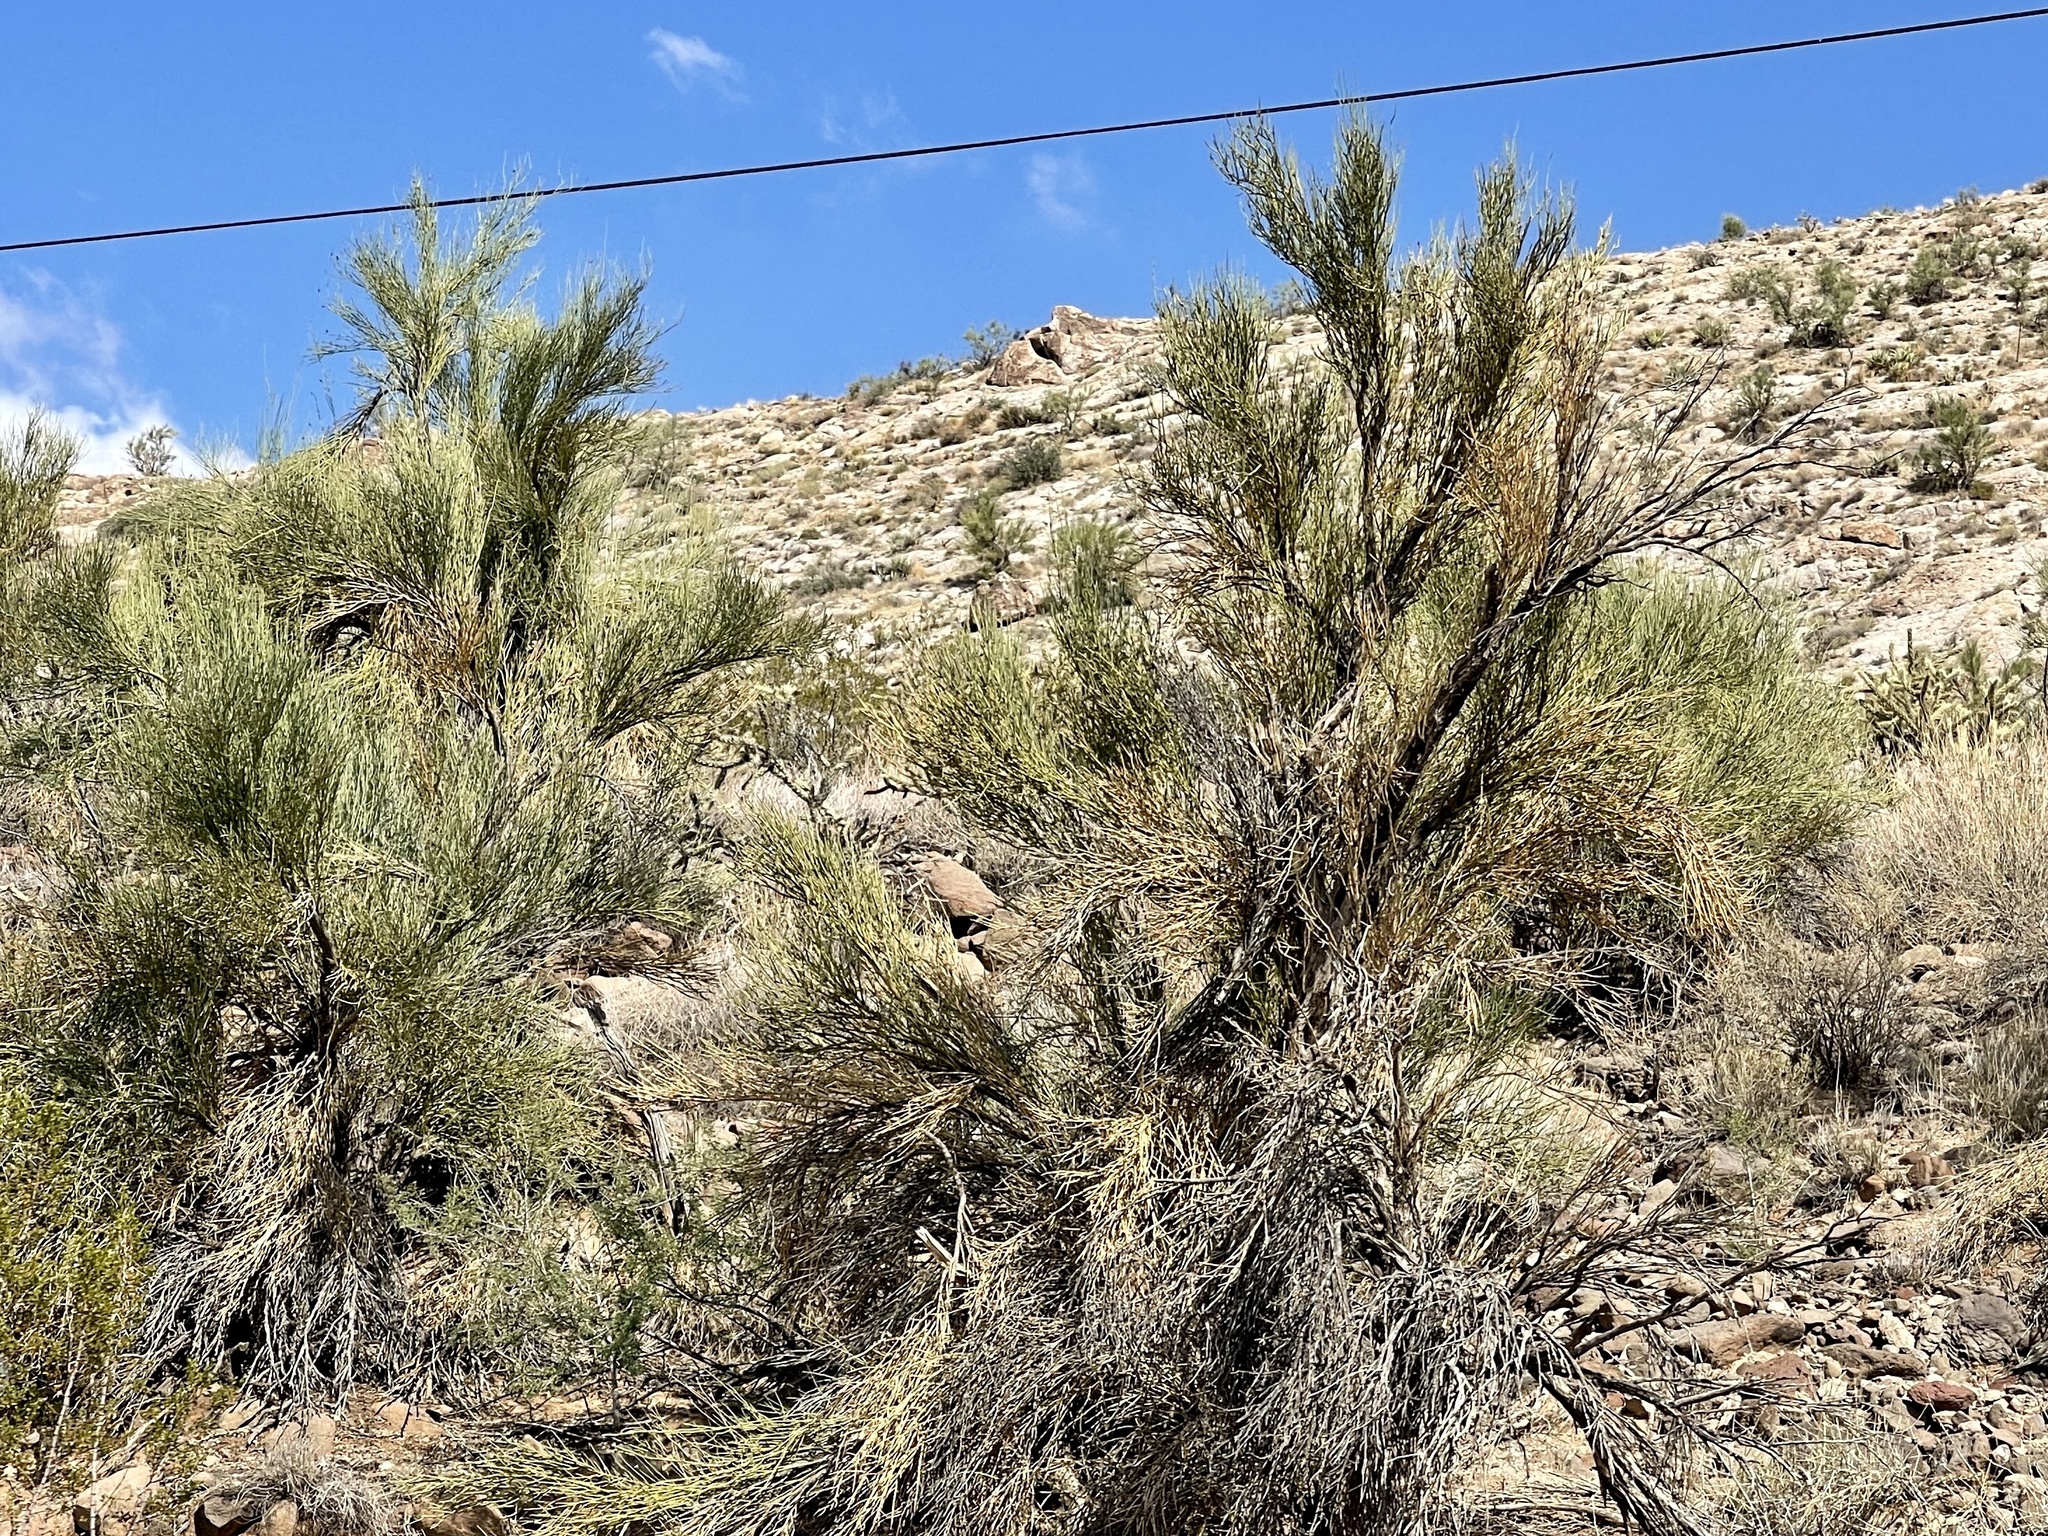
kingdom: Plantae
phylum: Tracheophyta
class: Magnoliopsida
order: Celastrales
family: Celastraceae
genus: Canotia
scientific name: Canotia holacantha
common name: Crucifixion thorns
